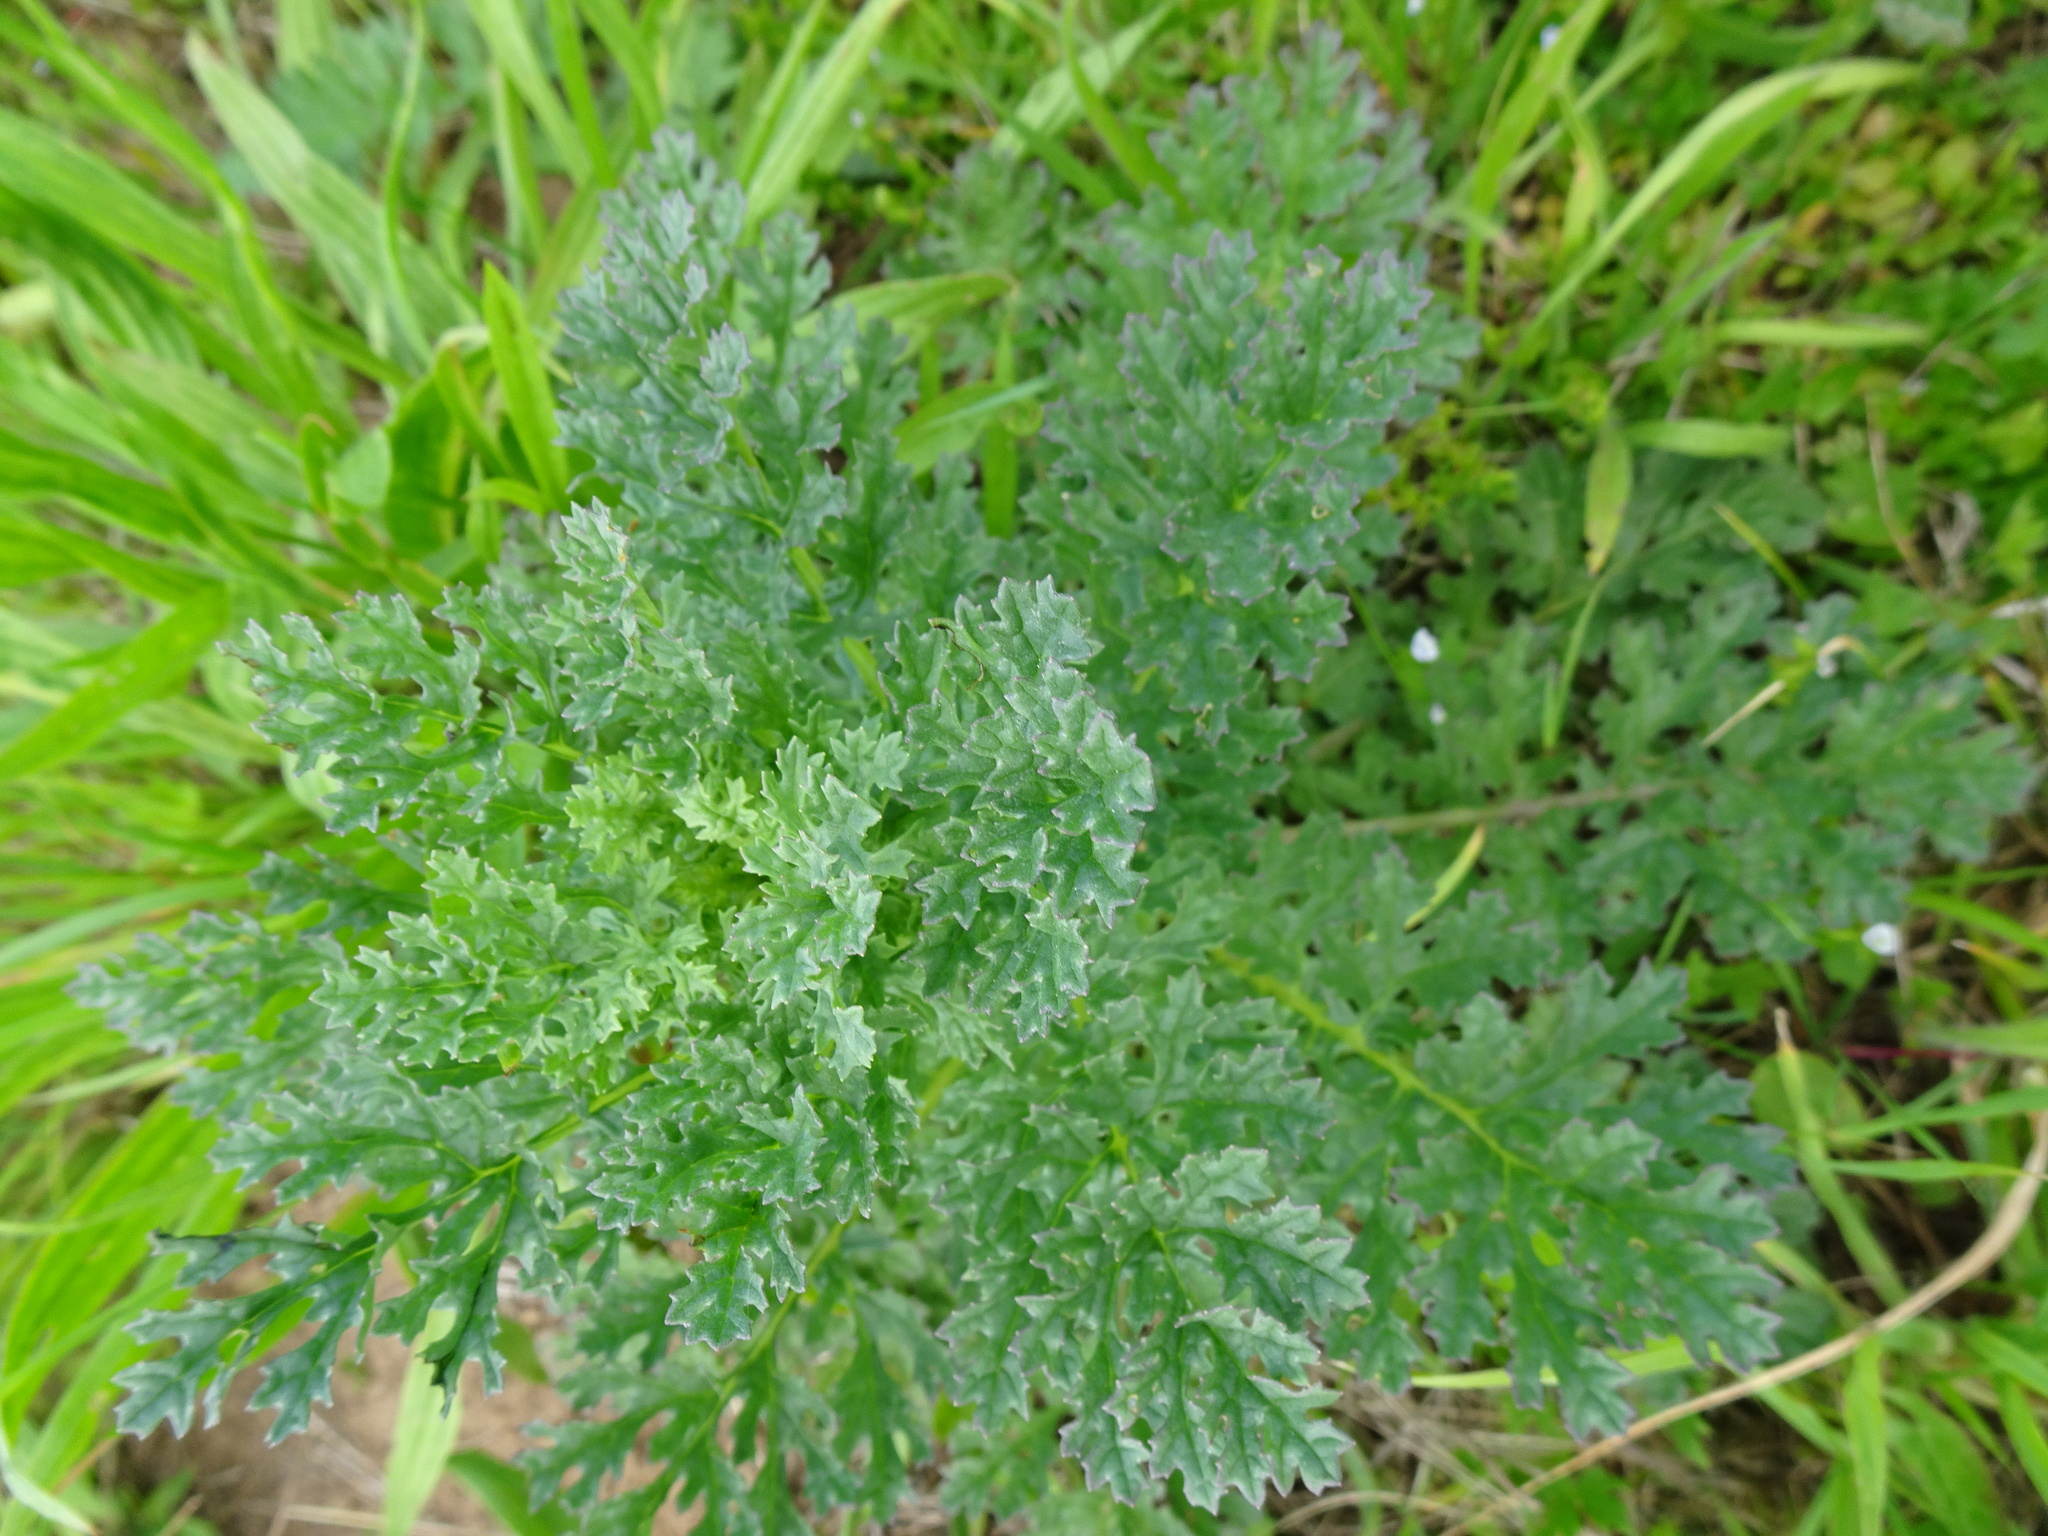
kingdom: Plantae
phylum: Tracheophyta
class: Magnoliopsida
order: Asterales
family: Asteraceae
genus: Jacobaea
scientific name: Jacobaea vulgaris
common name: Stinking willie
